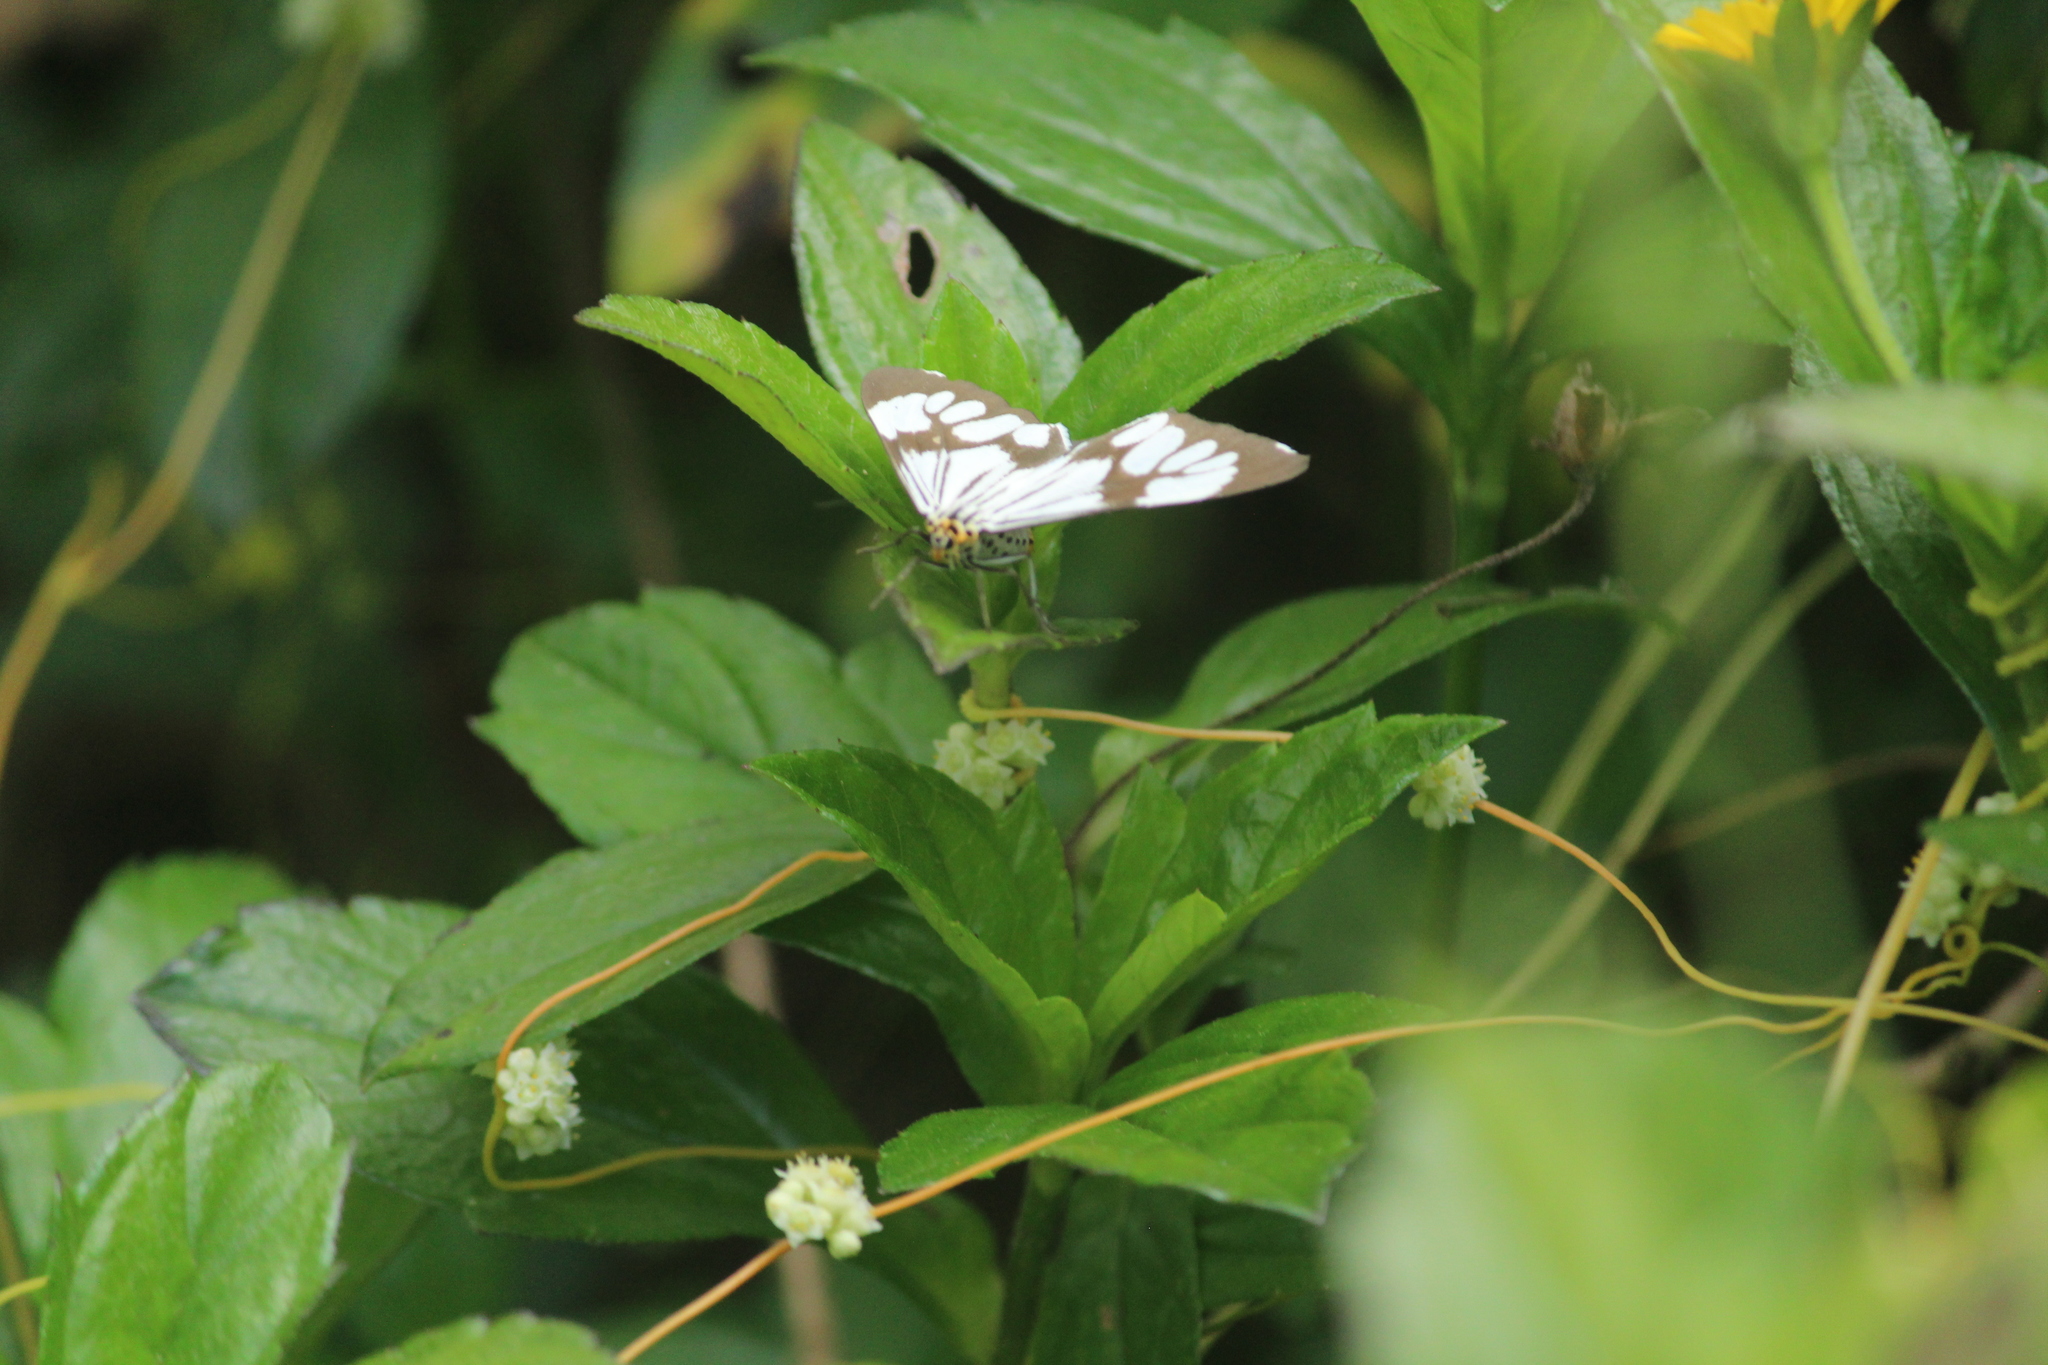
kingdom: Animalia
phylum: Arthropoda
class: Insecta
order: Lepidoptera
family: Erebidae
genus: Nyctemera
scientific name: Nyctemera coleta
